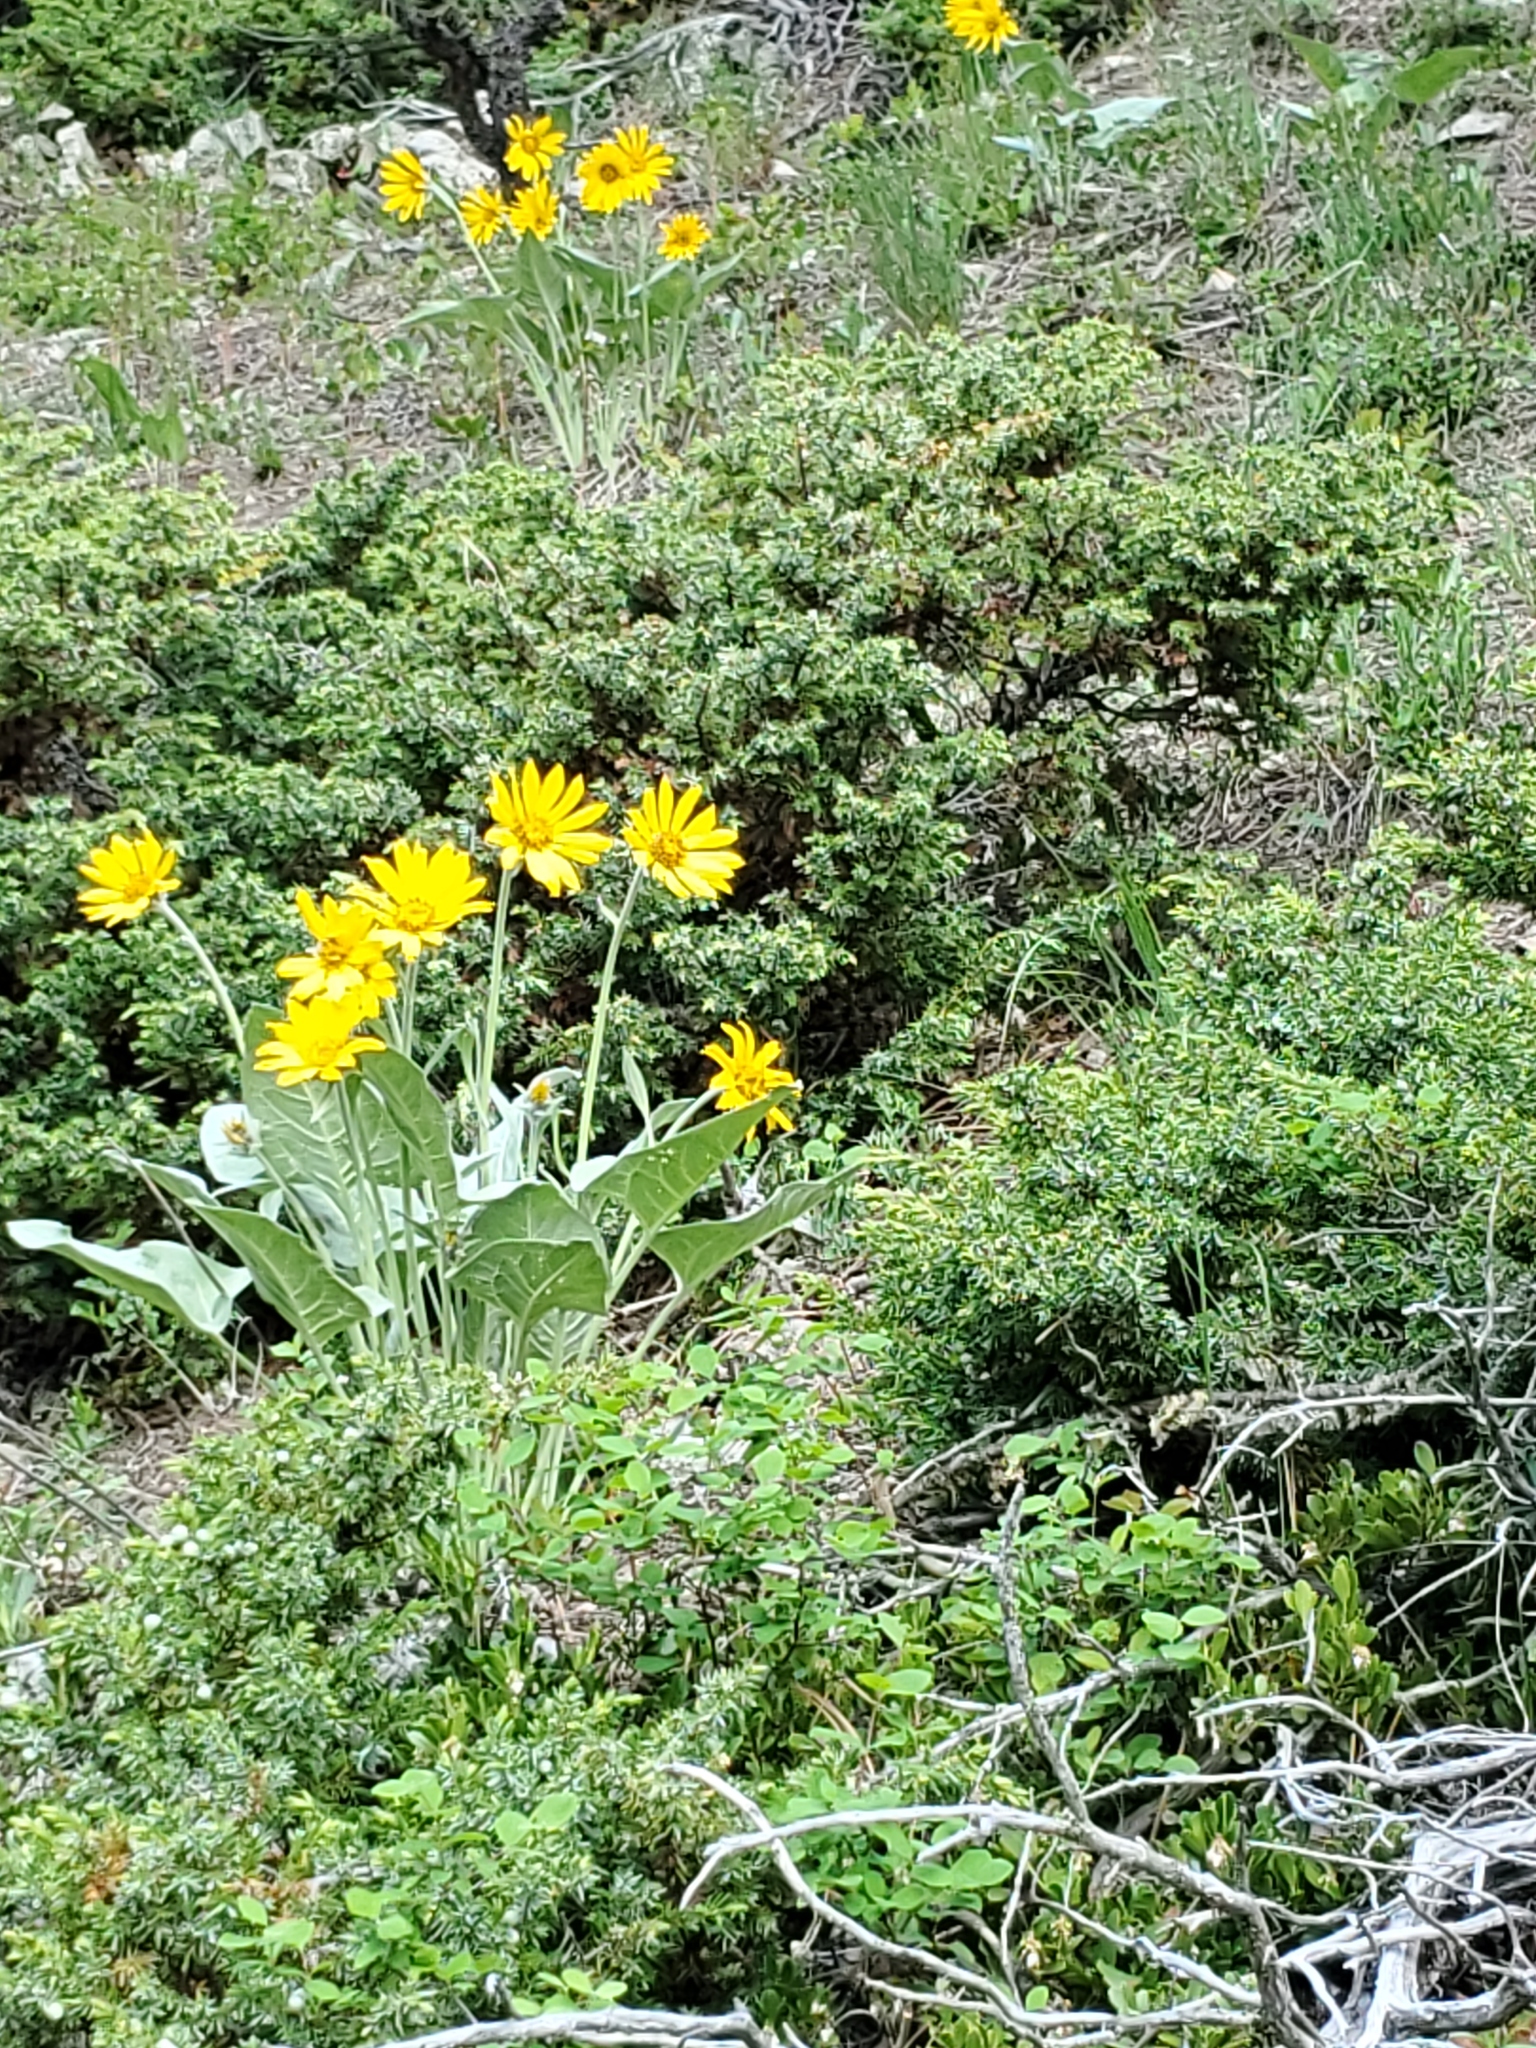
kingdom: Plantae
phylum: Tracheophyta
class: Magnoliopsida
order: Asterales
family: Asteraceae
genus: Wyethia
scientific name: Wyethia sagittata
